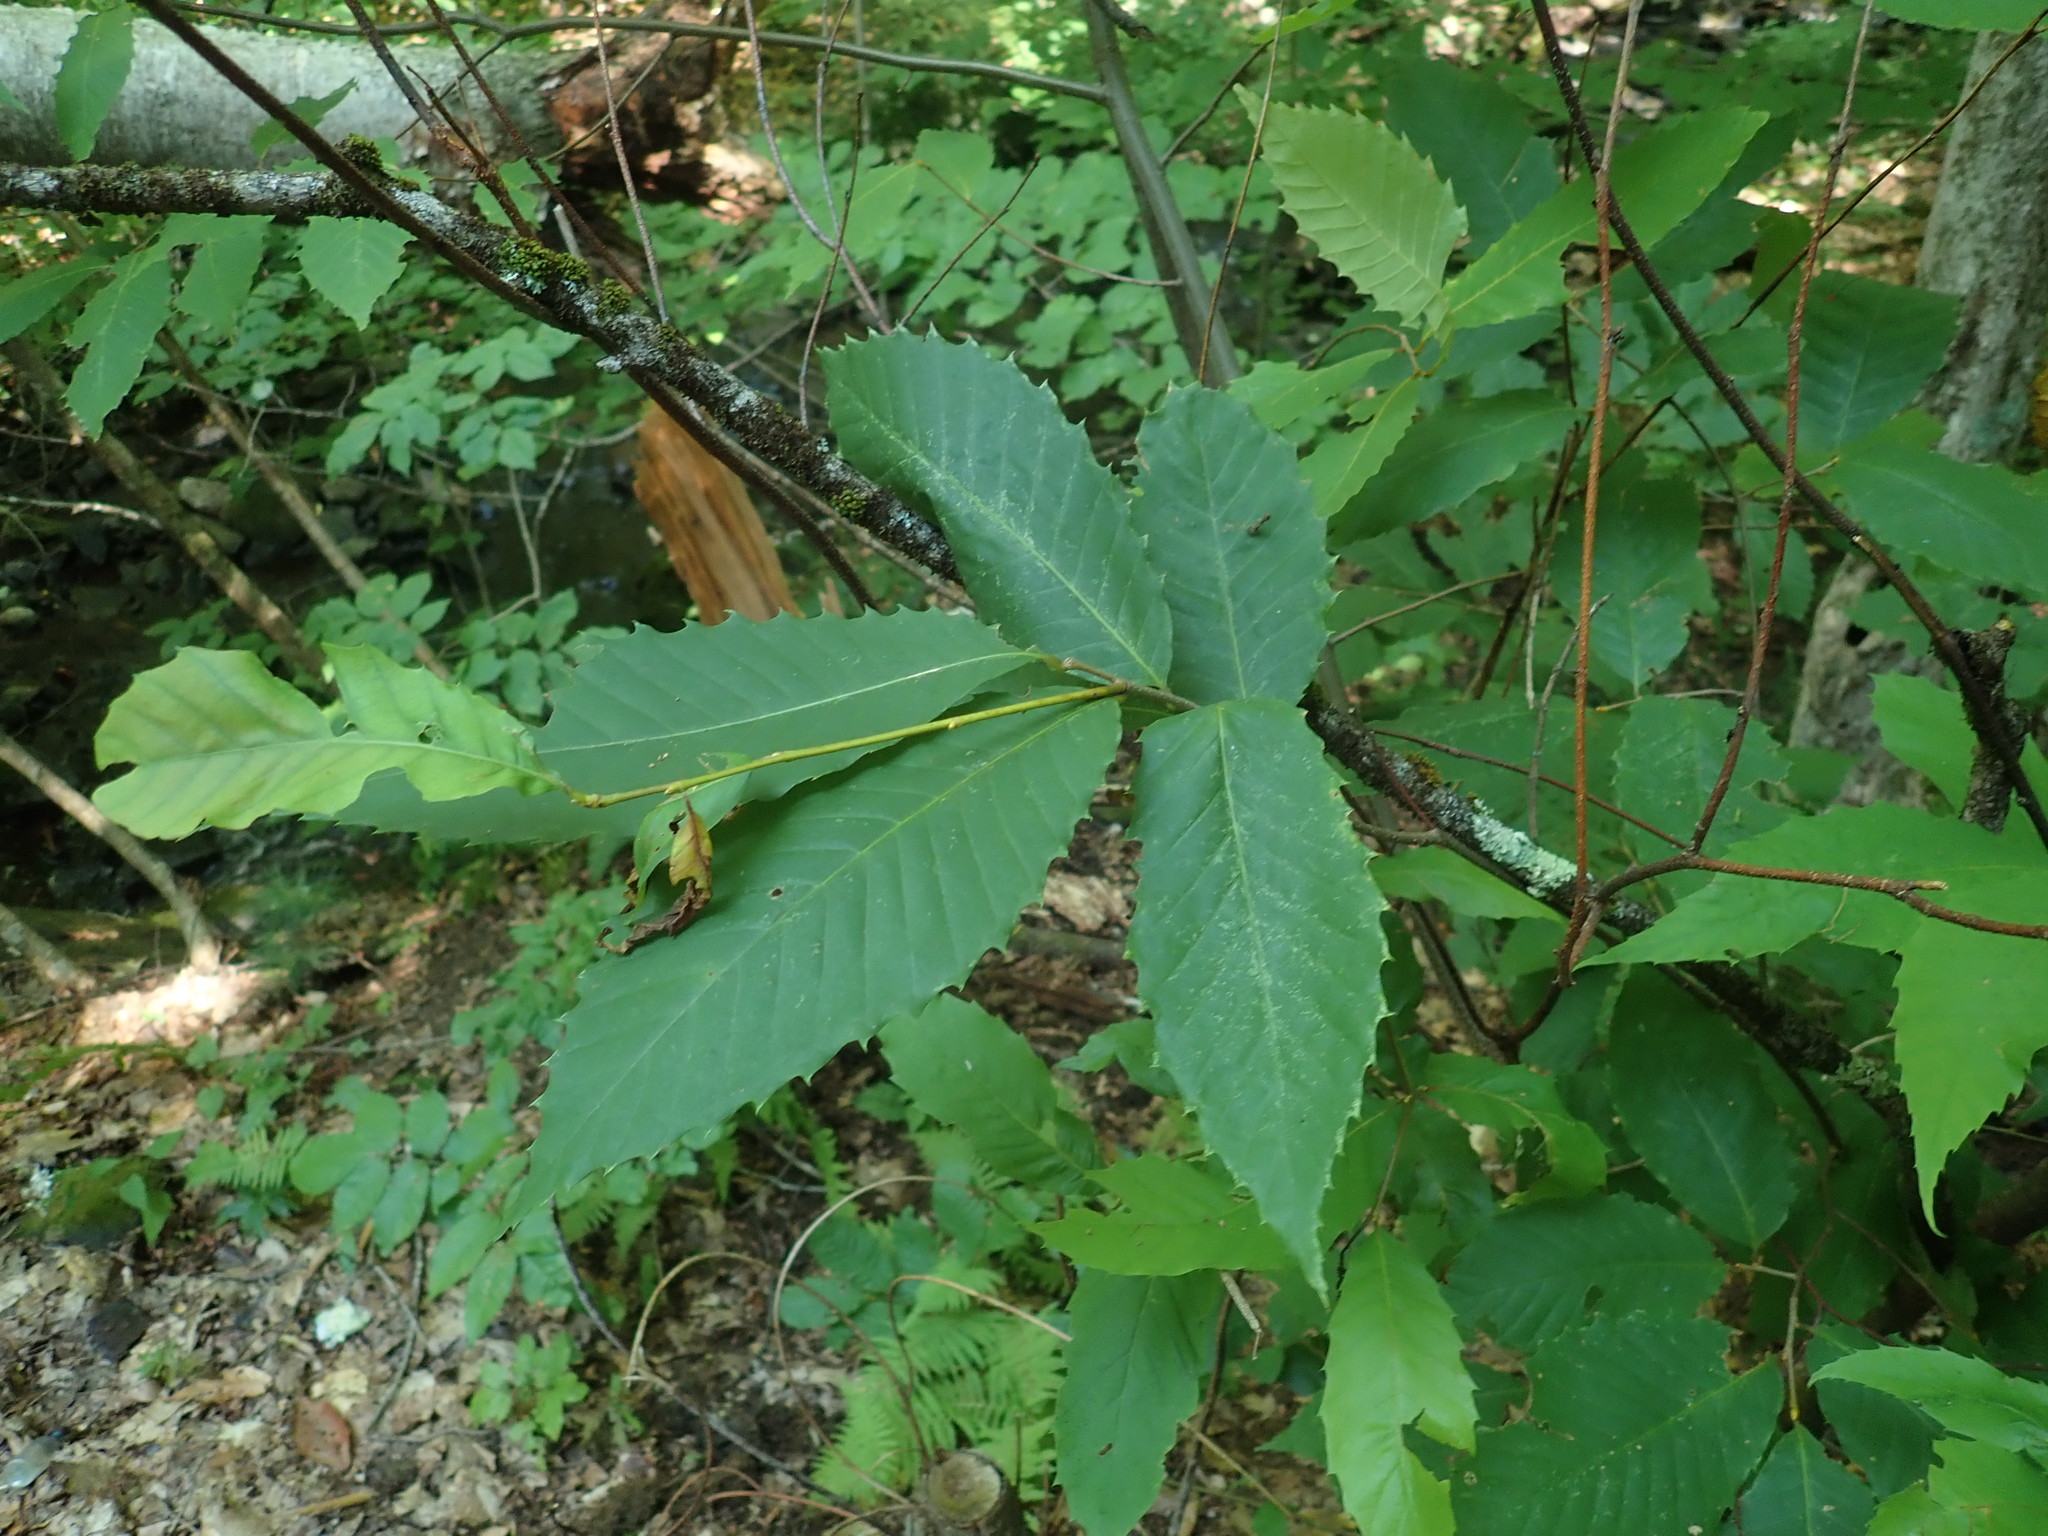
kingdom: Plantae
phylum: Tracheophyta
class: Magnoliopsida
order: Fagales
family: Fagaceae
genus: Castanea
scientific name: Castanea dentata
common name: American chestnut
